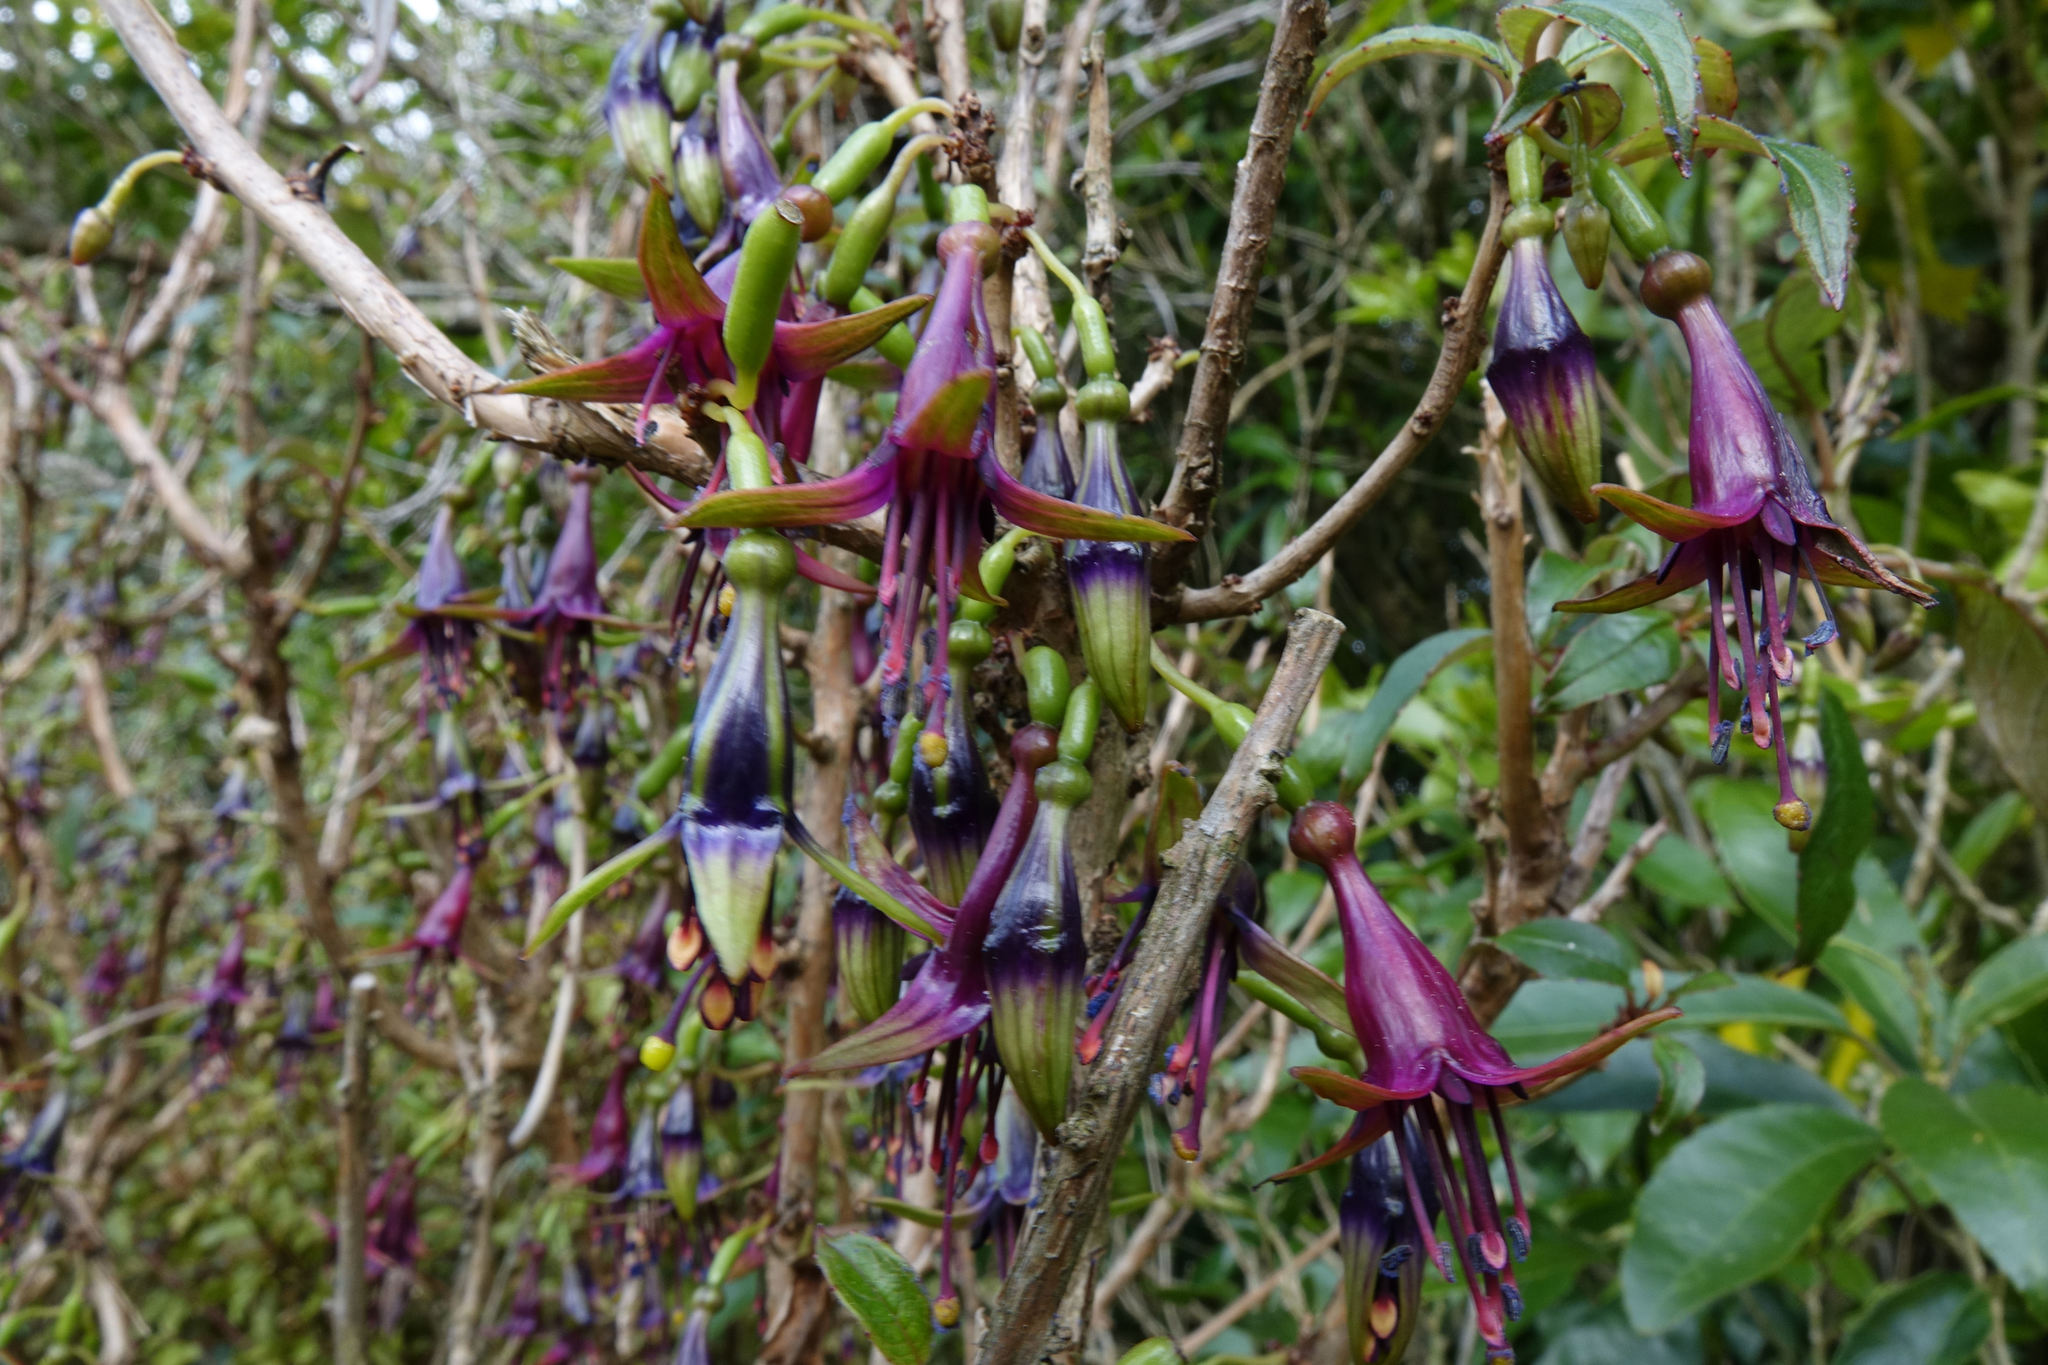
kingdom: Plantae
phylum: Tracheophyta
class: Magnoliopsida
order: Myrtales
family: Onagraceae
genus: Fuchsia
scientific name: Fuchsia excorticata
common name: Tree fuchsia
